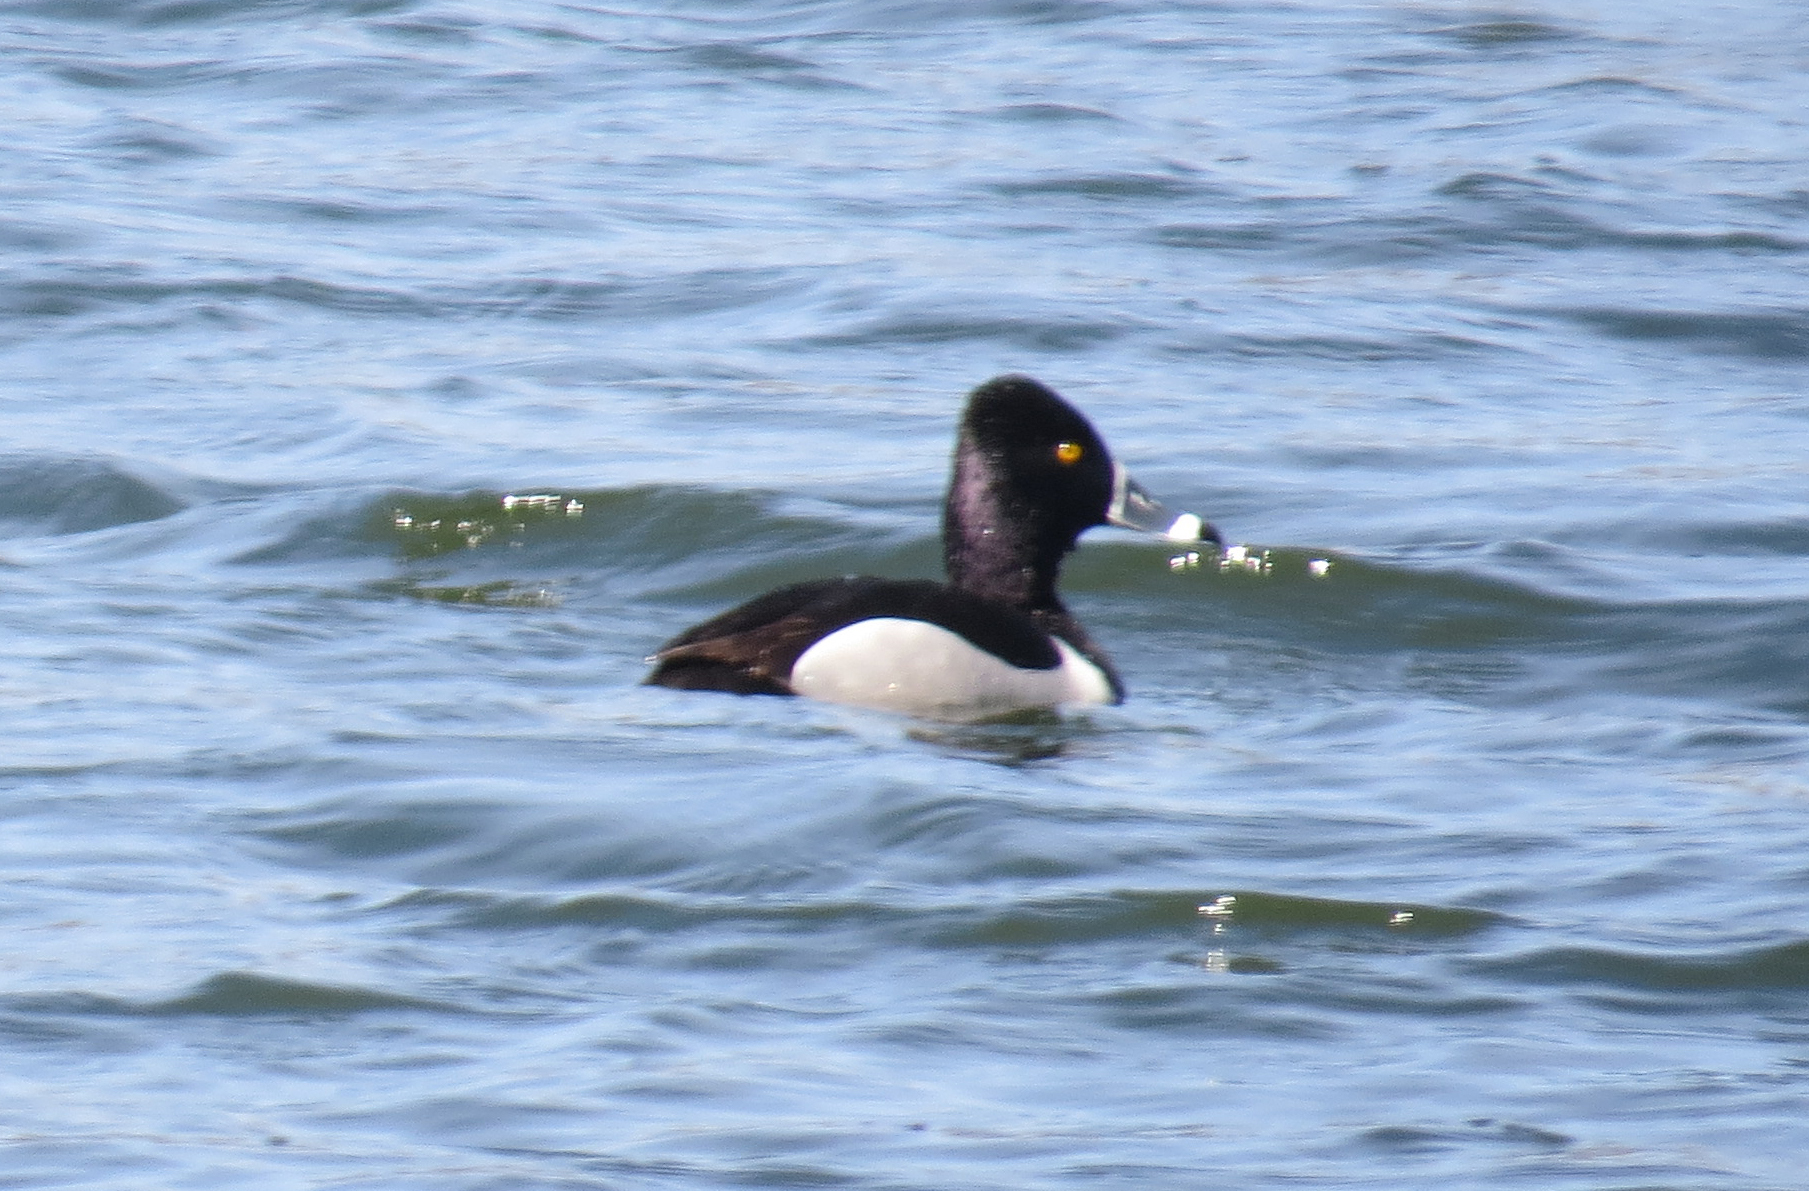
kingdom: Animalia
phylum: Chordata
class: Aves
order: Anseriformes
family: Anatidae
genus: Aythya
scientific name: Aythya collaris
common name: Ring-necked duck
